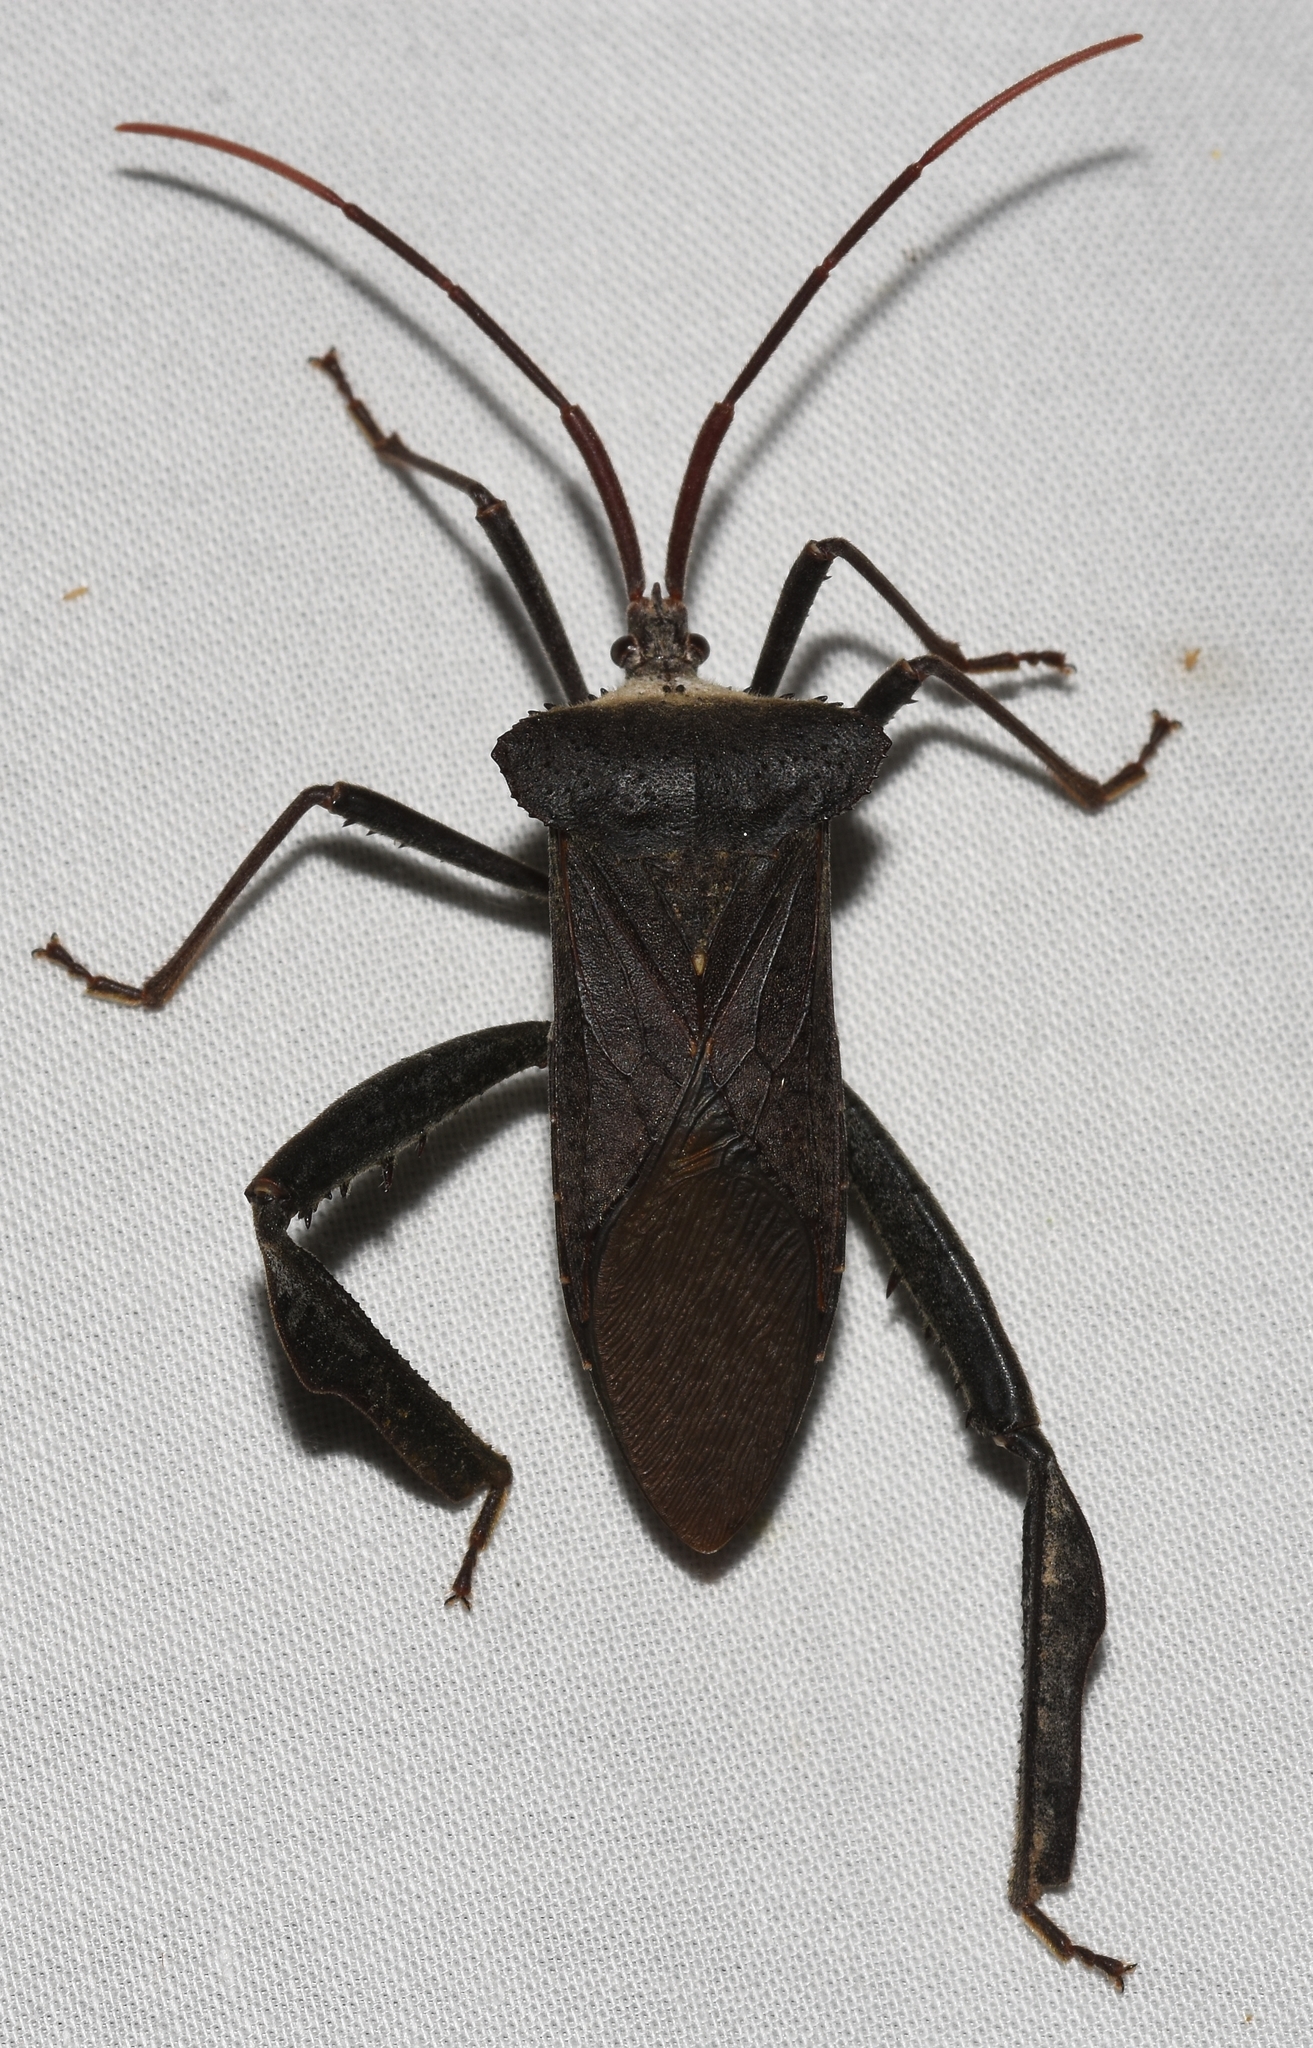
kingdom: Animalia
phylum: Arthropoda
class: Insecta
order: Hemiptera
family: Coreidae
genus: Acanthocephala
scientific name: Acanthocephala declivis
